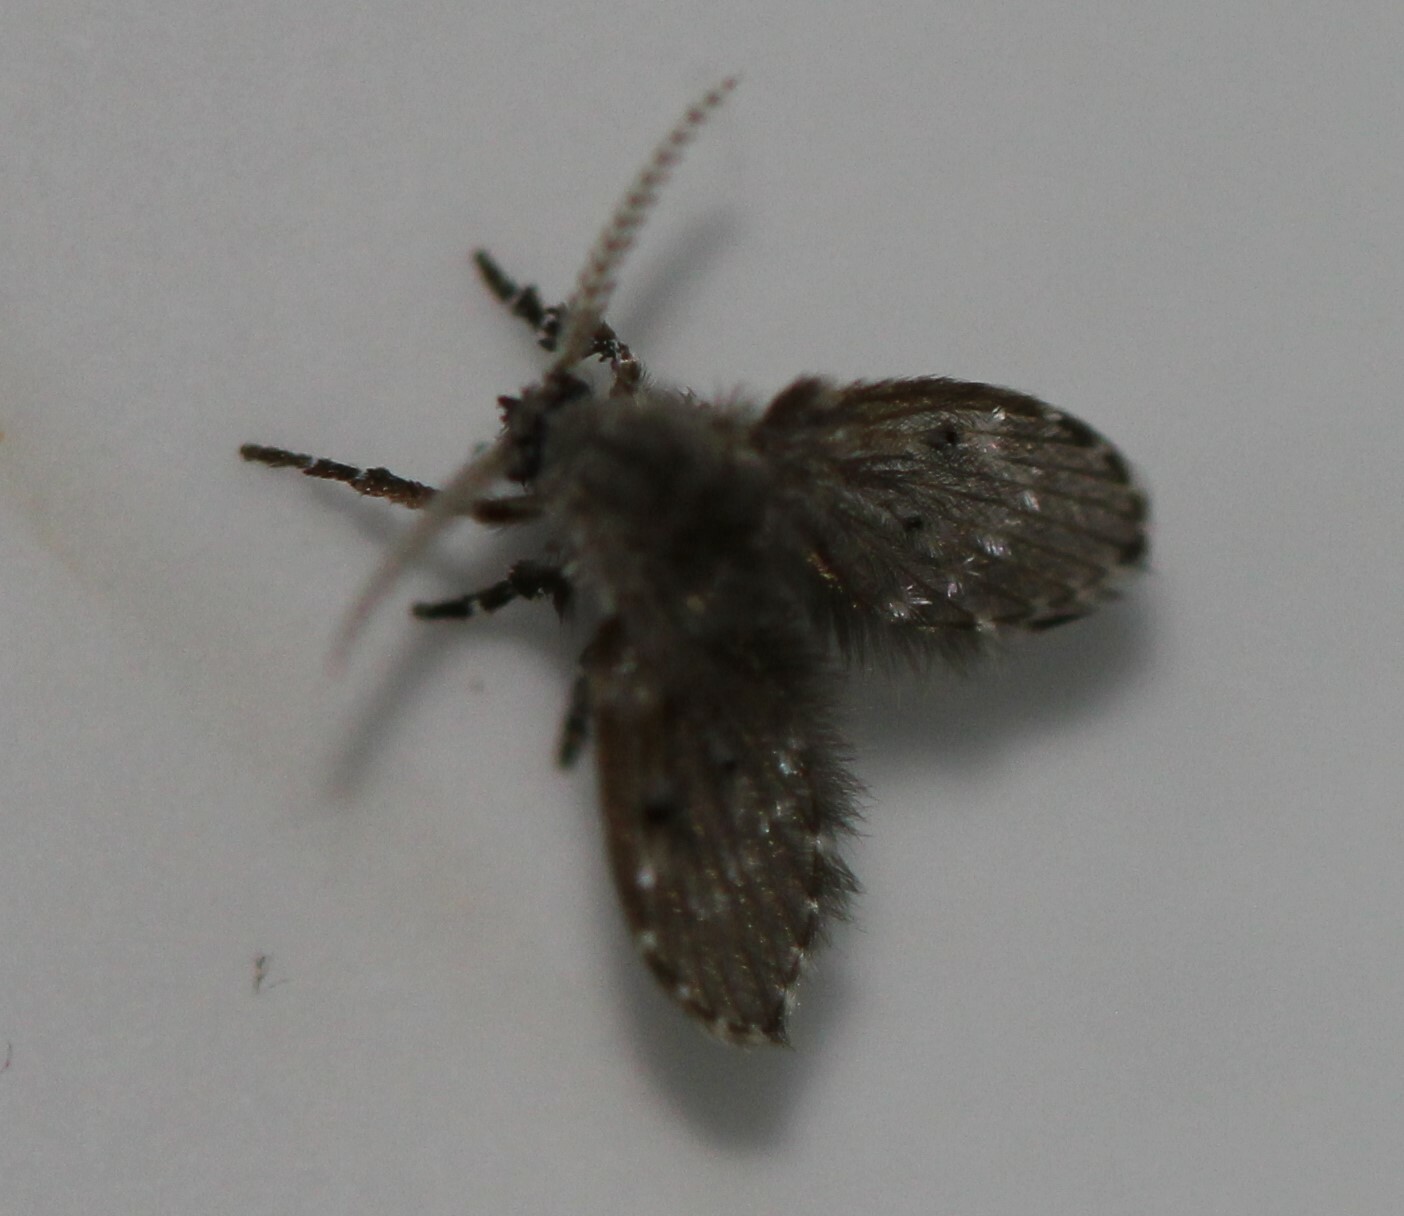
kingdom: Animalia
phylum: Arthropoda
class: Insecta
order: Diptera
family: Psychodidae
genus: Clogmia
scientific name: Clogmia albipunctatus
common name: White-spotted moth fly
